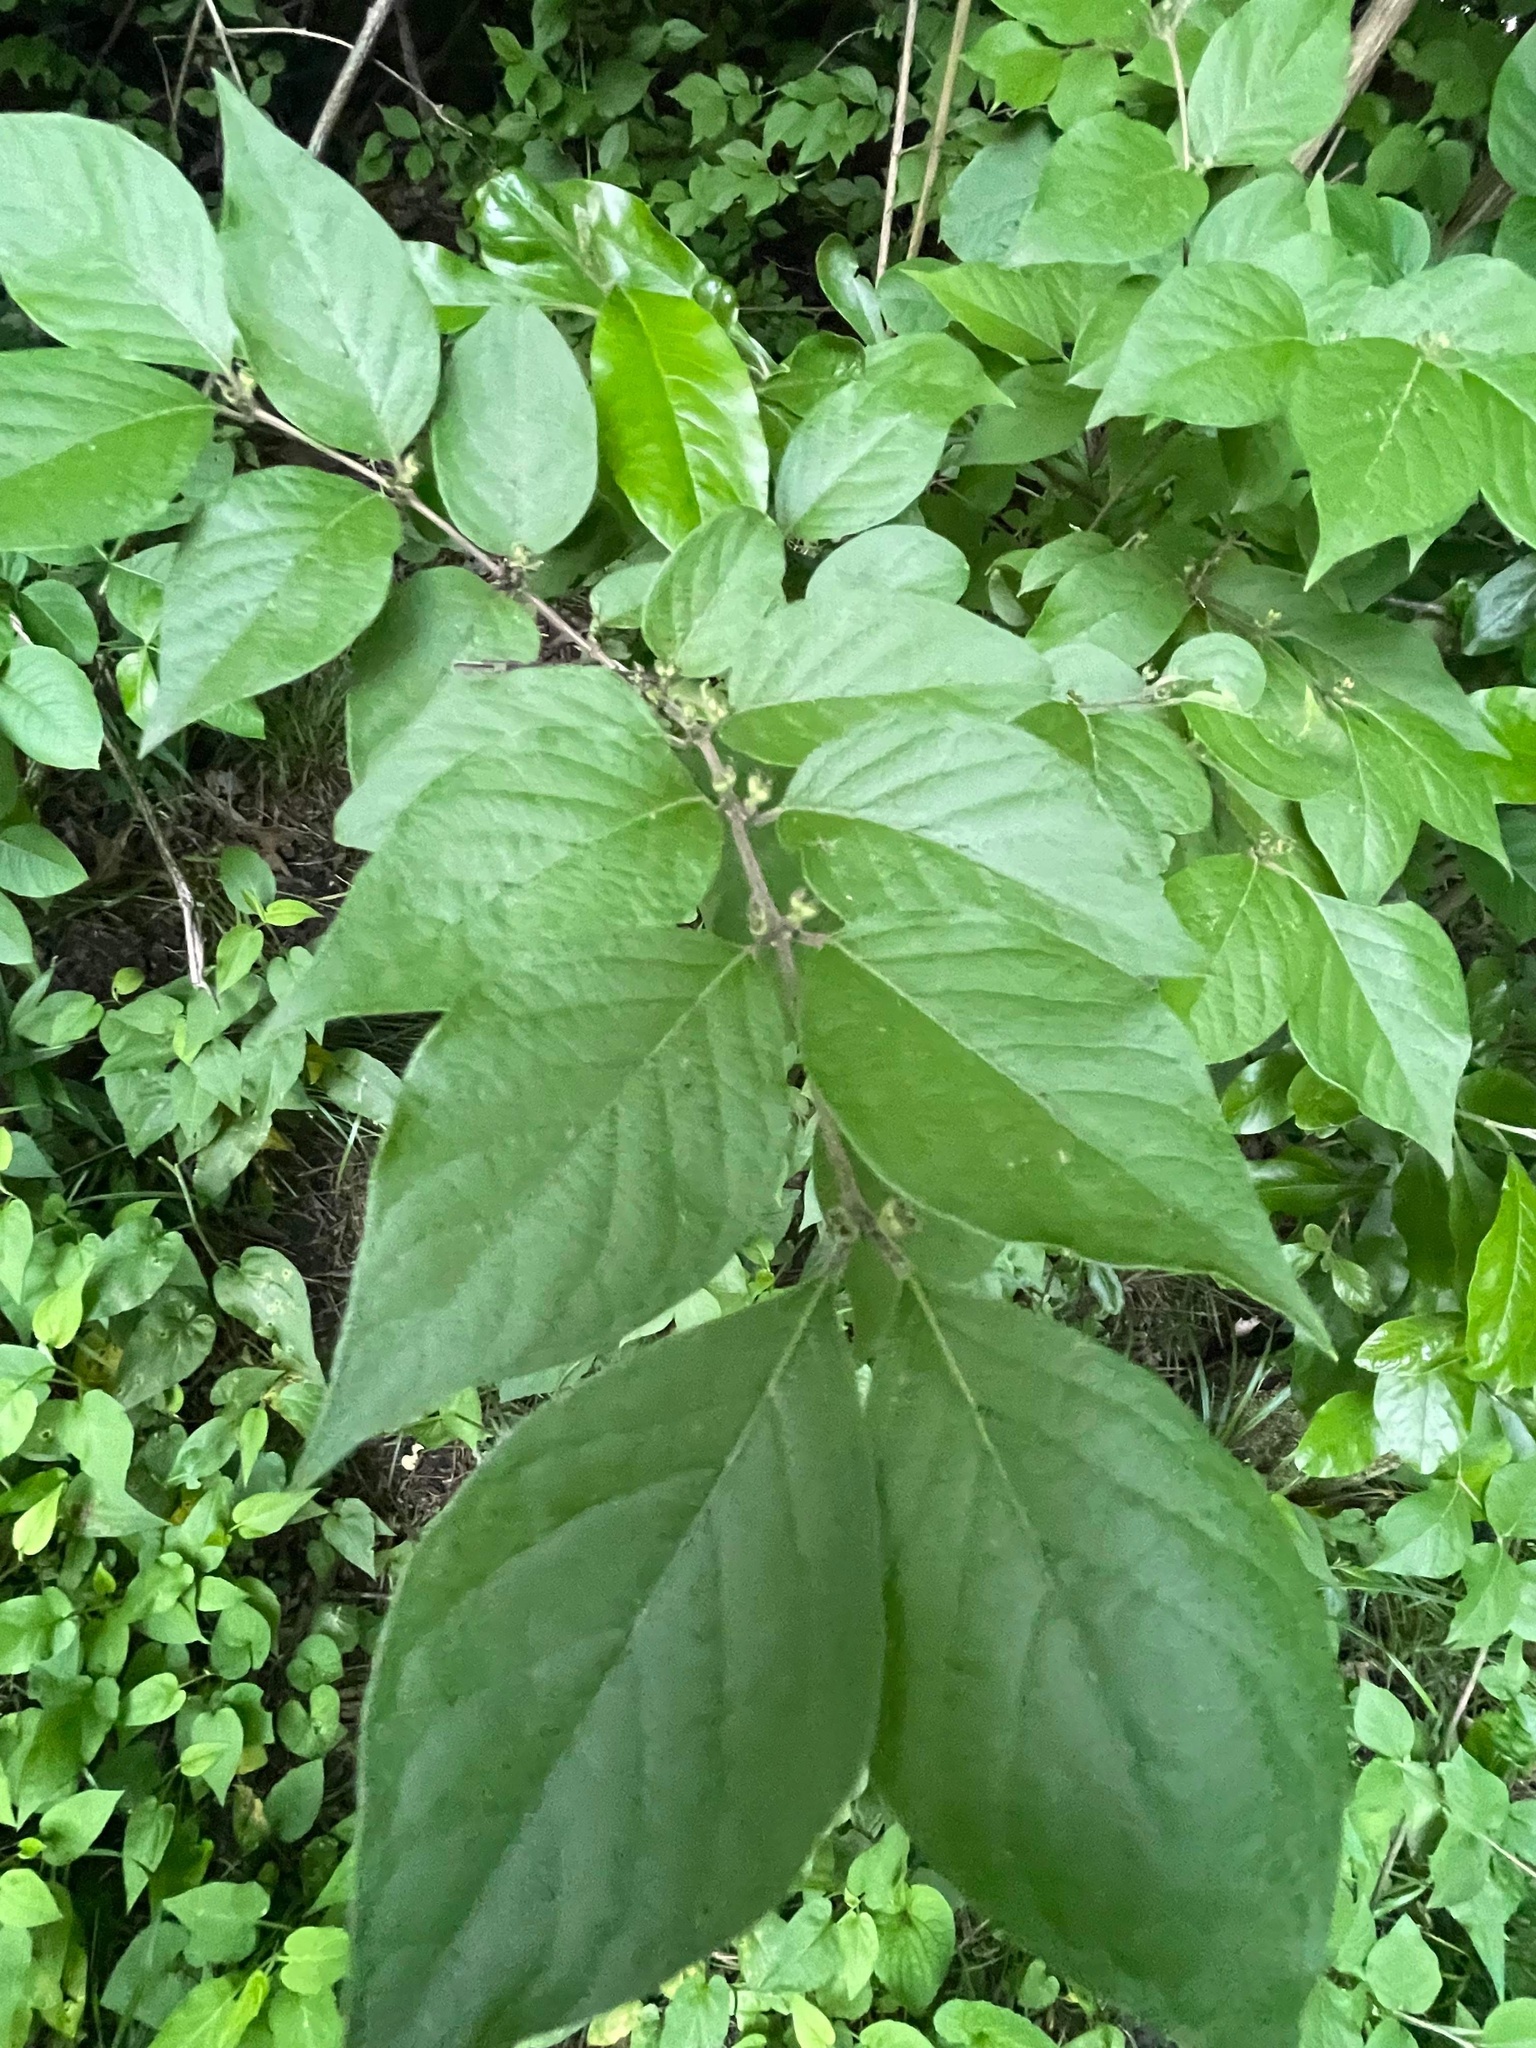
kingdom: Plantae
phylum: Tracheophyta
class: Magnoliopsida
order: Dipsacales
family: Caprifoliaceae
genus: Lonicera
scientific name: Lonicera maackii
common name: Amur honeysuckle
